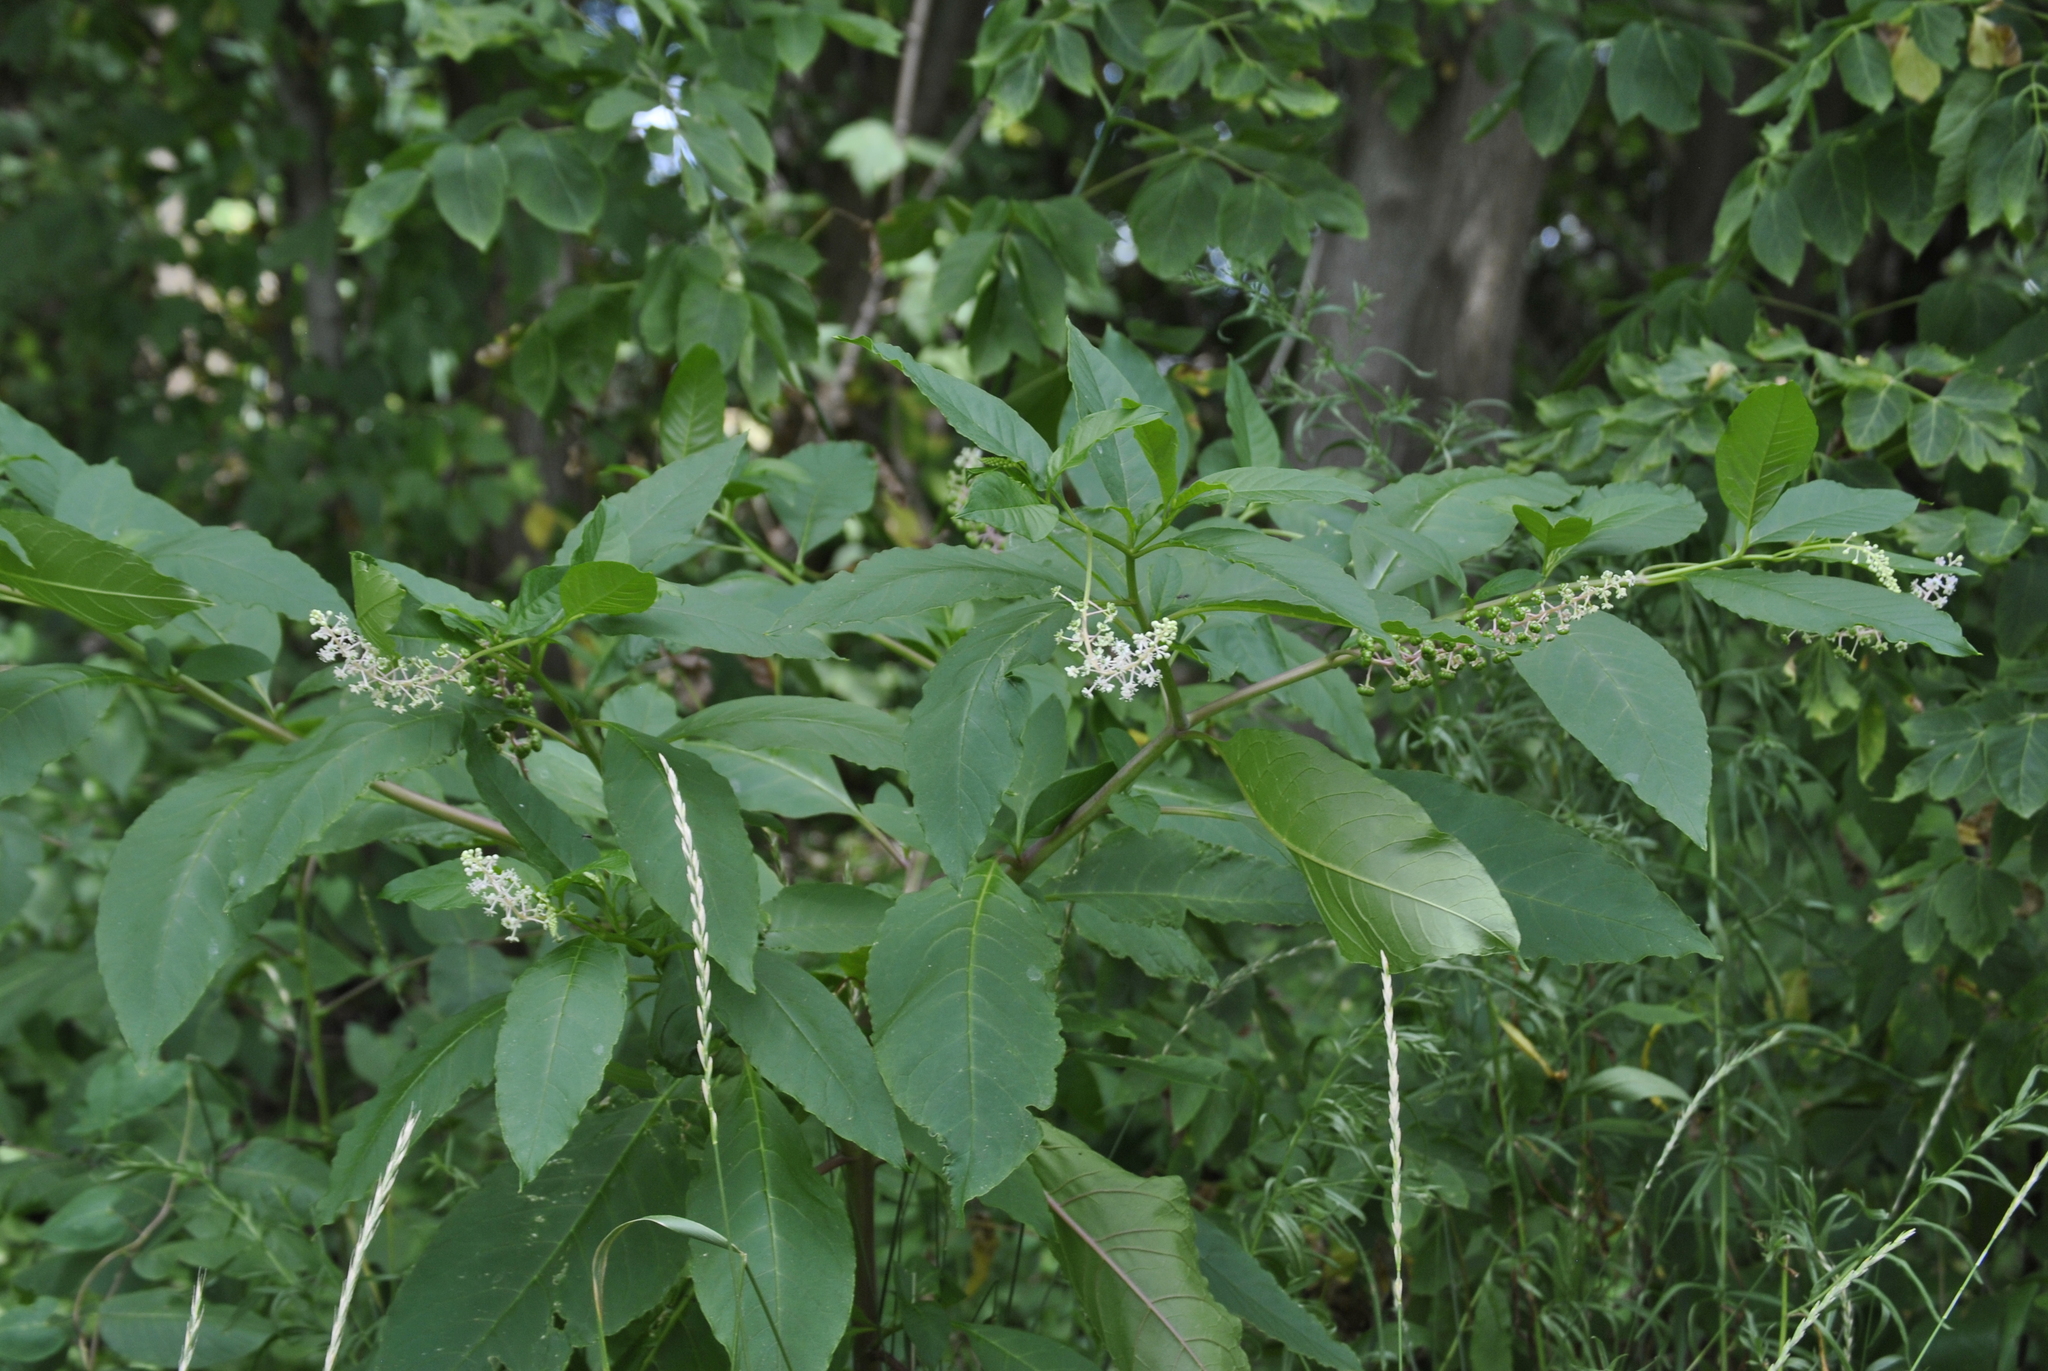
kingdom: Plantae
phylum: Tracheophyta
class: Magnoliopsida
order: Caryophyllales
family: Phytolaccaceae
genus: Phytolacca
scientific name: Phytolacca americana
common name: American pokeweed
